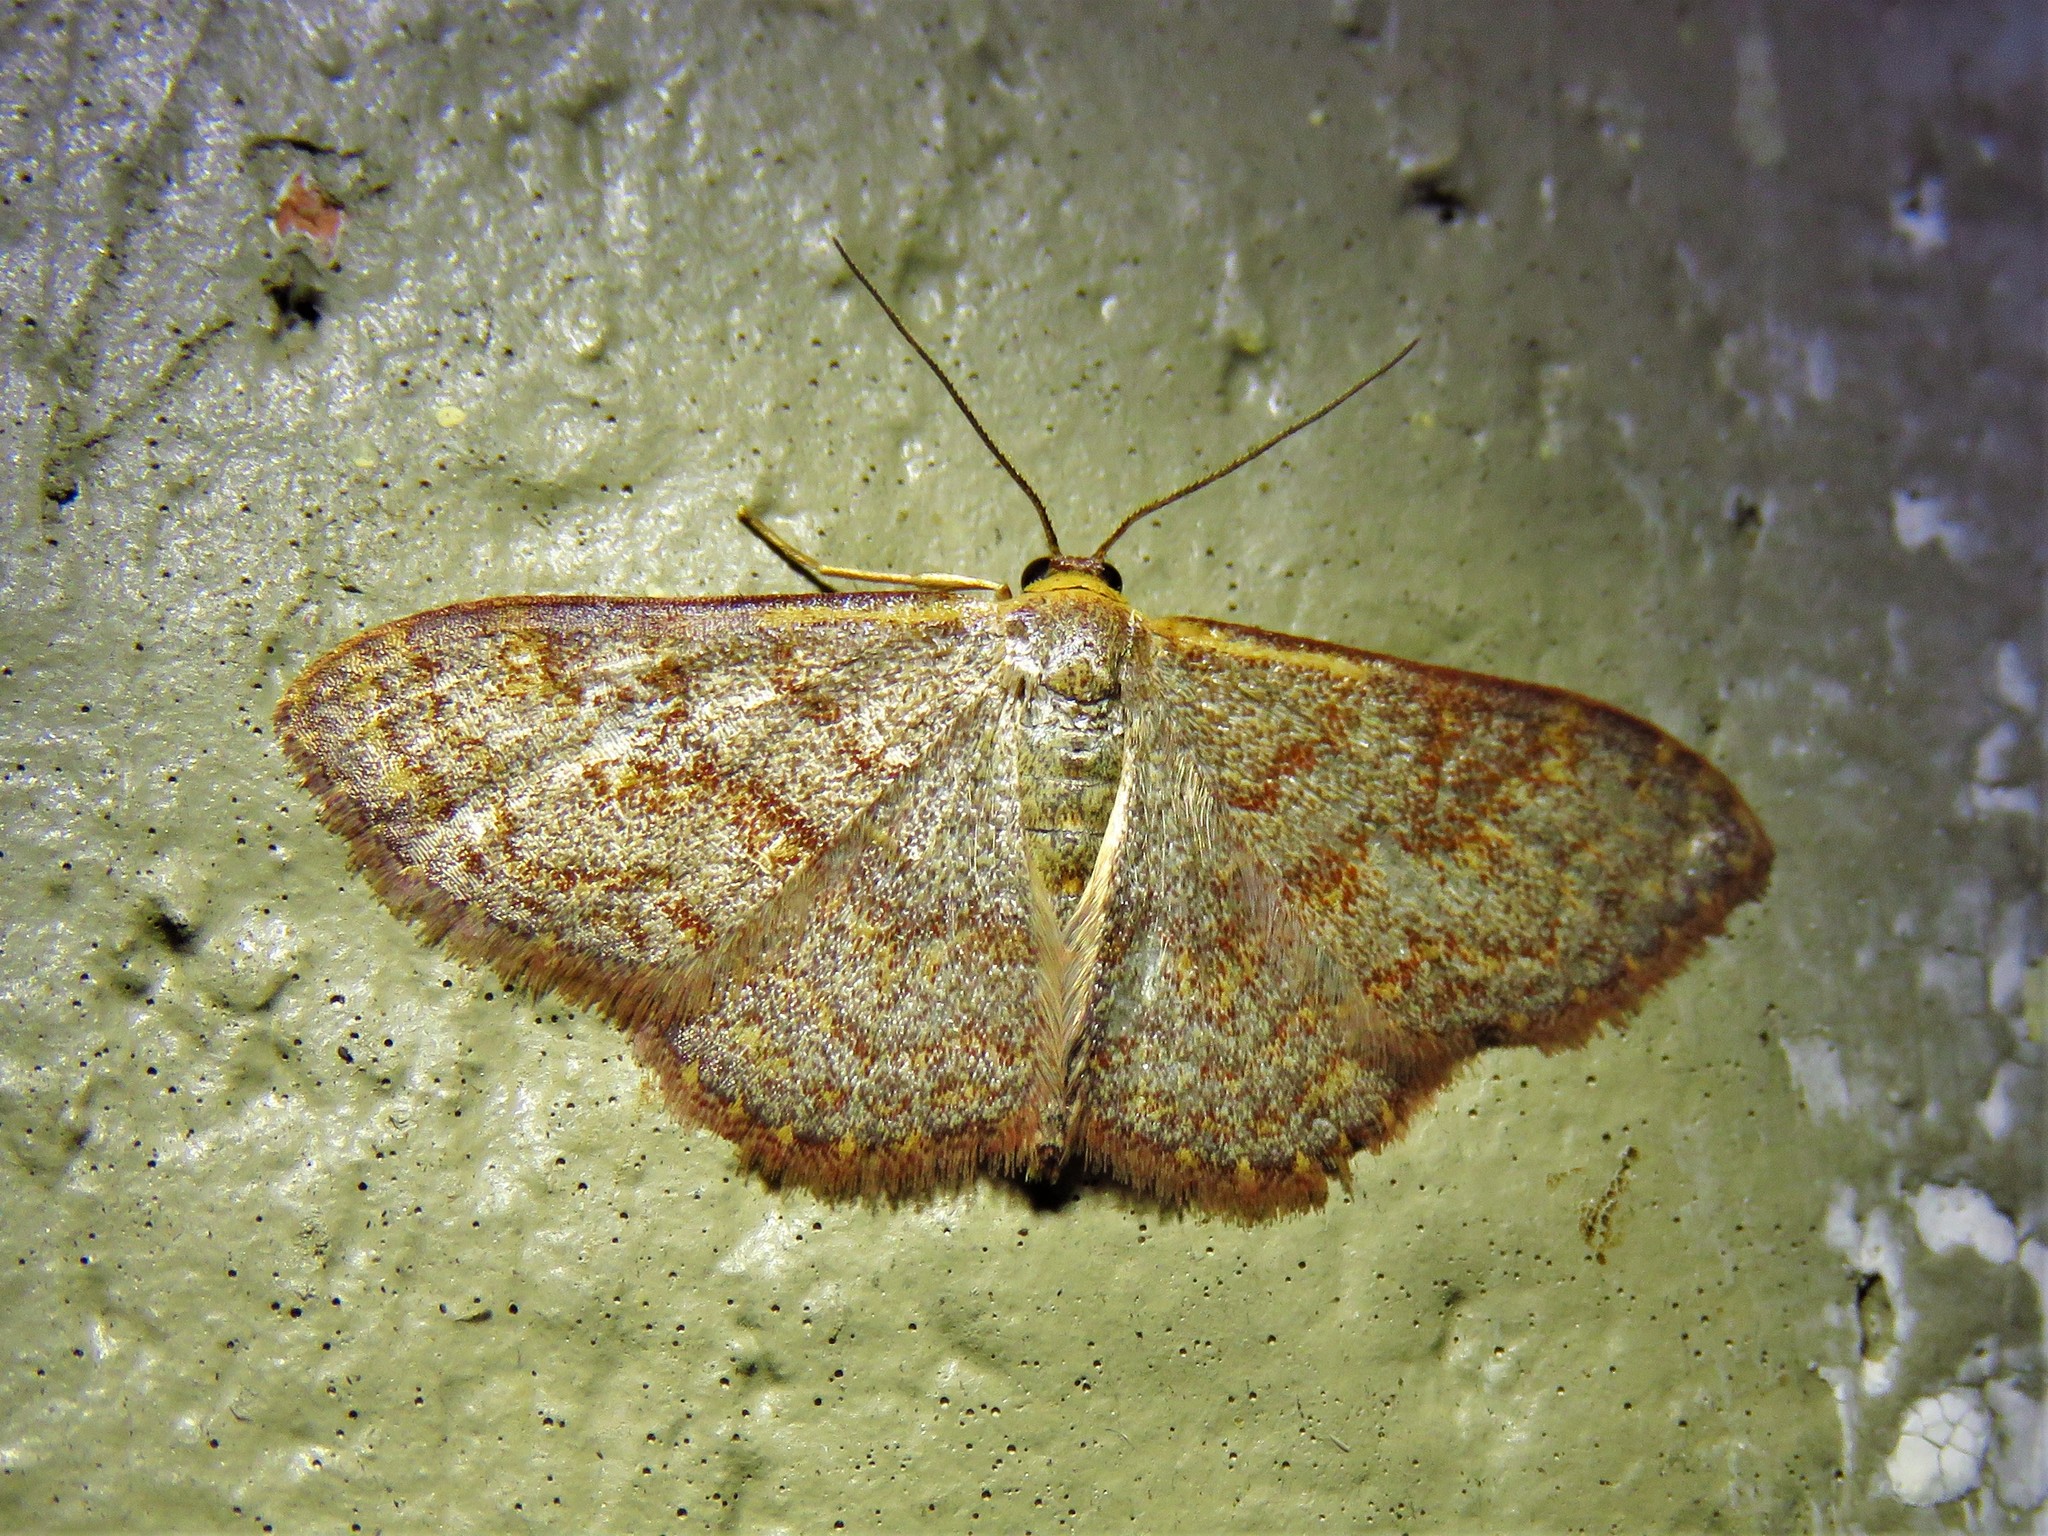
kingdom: Animalia
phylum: Arthropoda
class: Insecta
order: Lepidoptera
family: Geometridae
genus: Leptostales
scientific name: Leptostales pannaria
